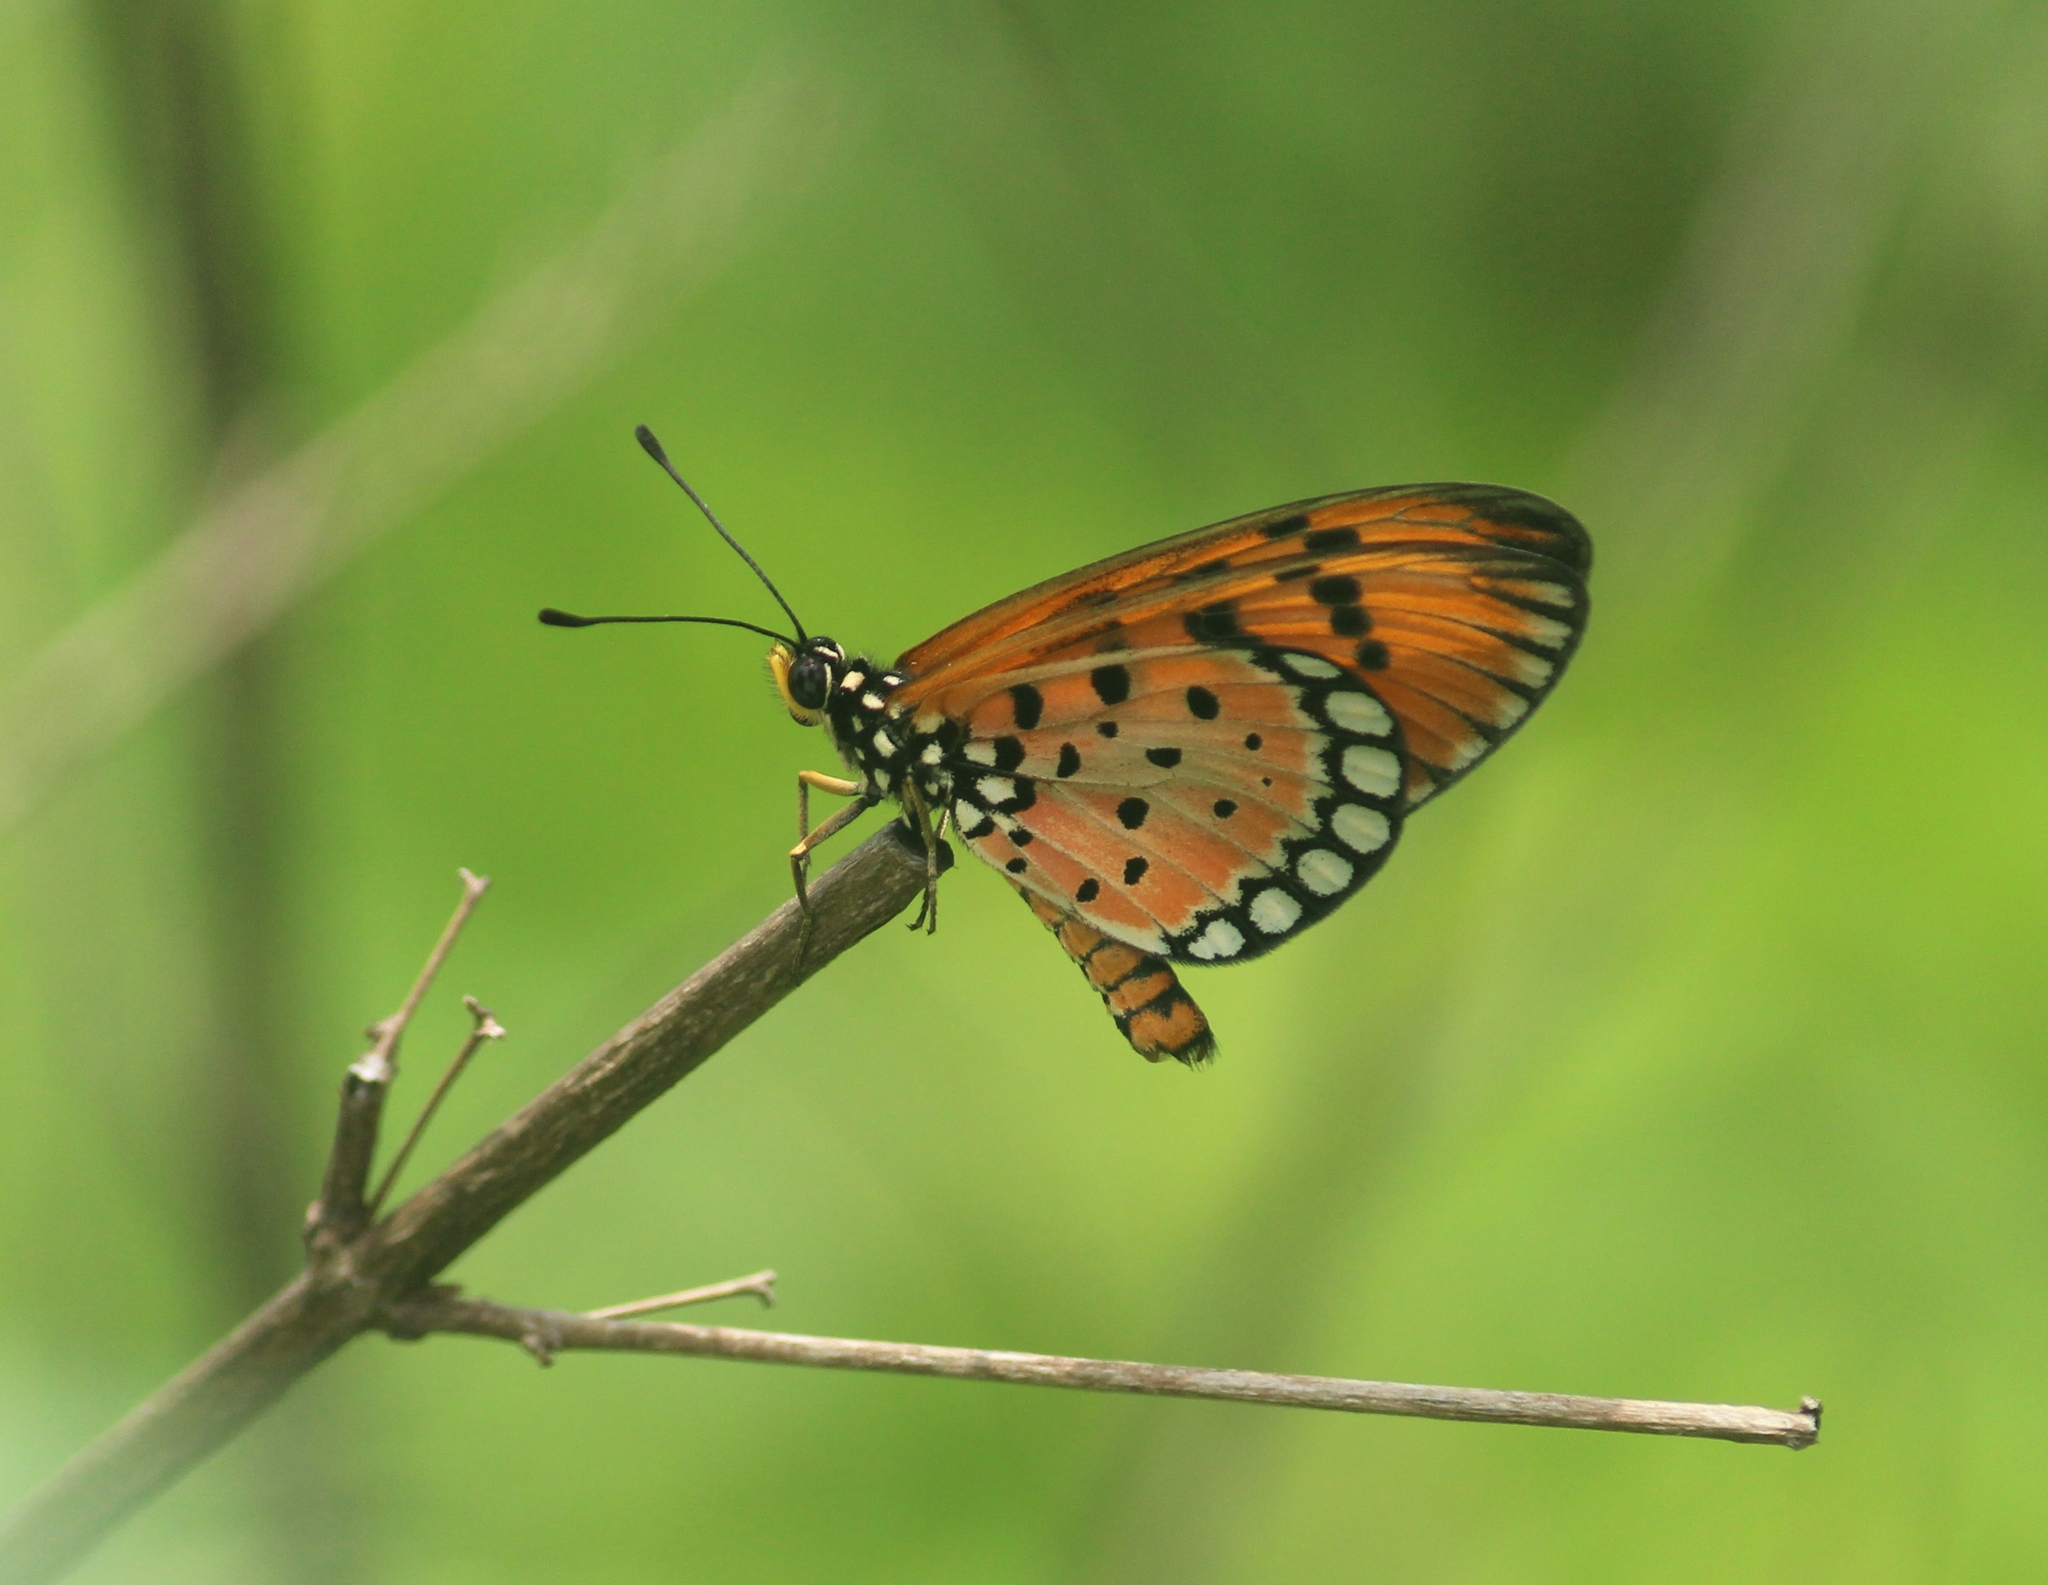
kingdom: Animalia
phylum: Arthropoda
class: Insecta
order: Lepidoptera
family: Nymphalidae
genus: Acraea
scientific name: Acraea terpsicore
